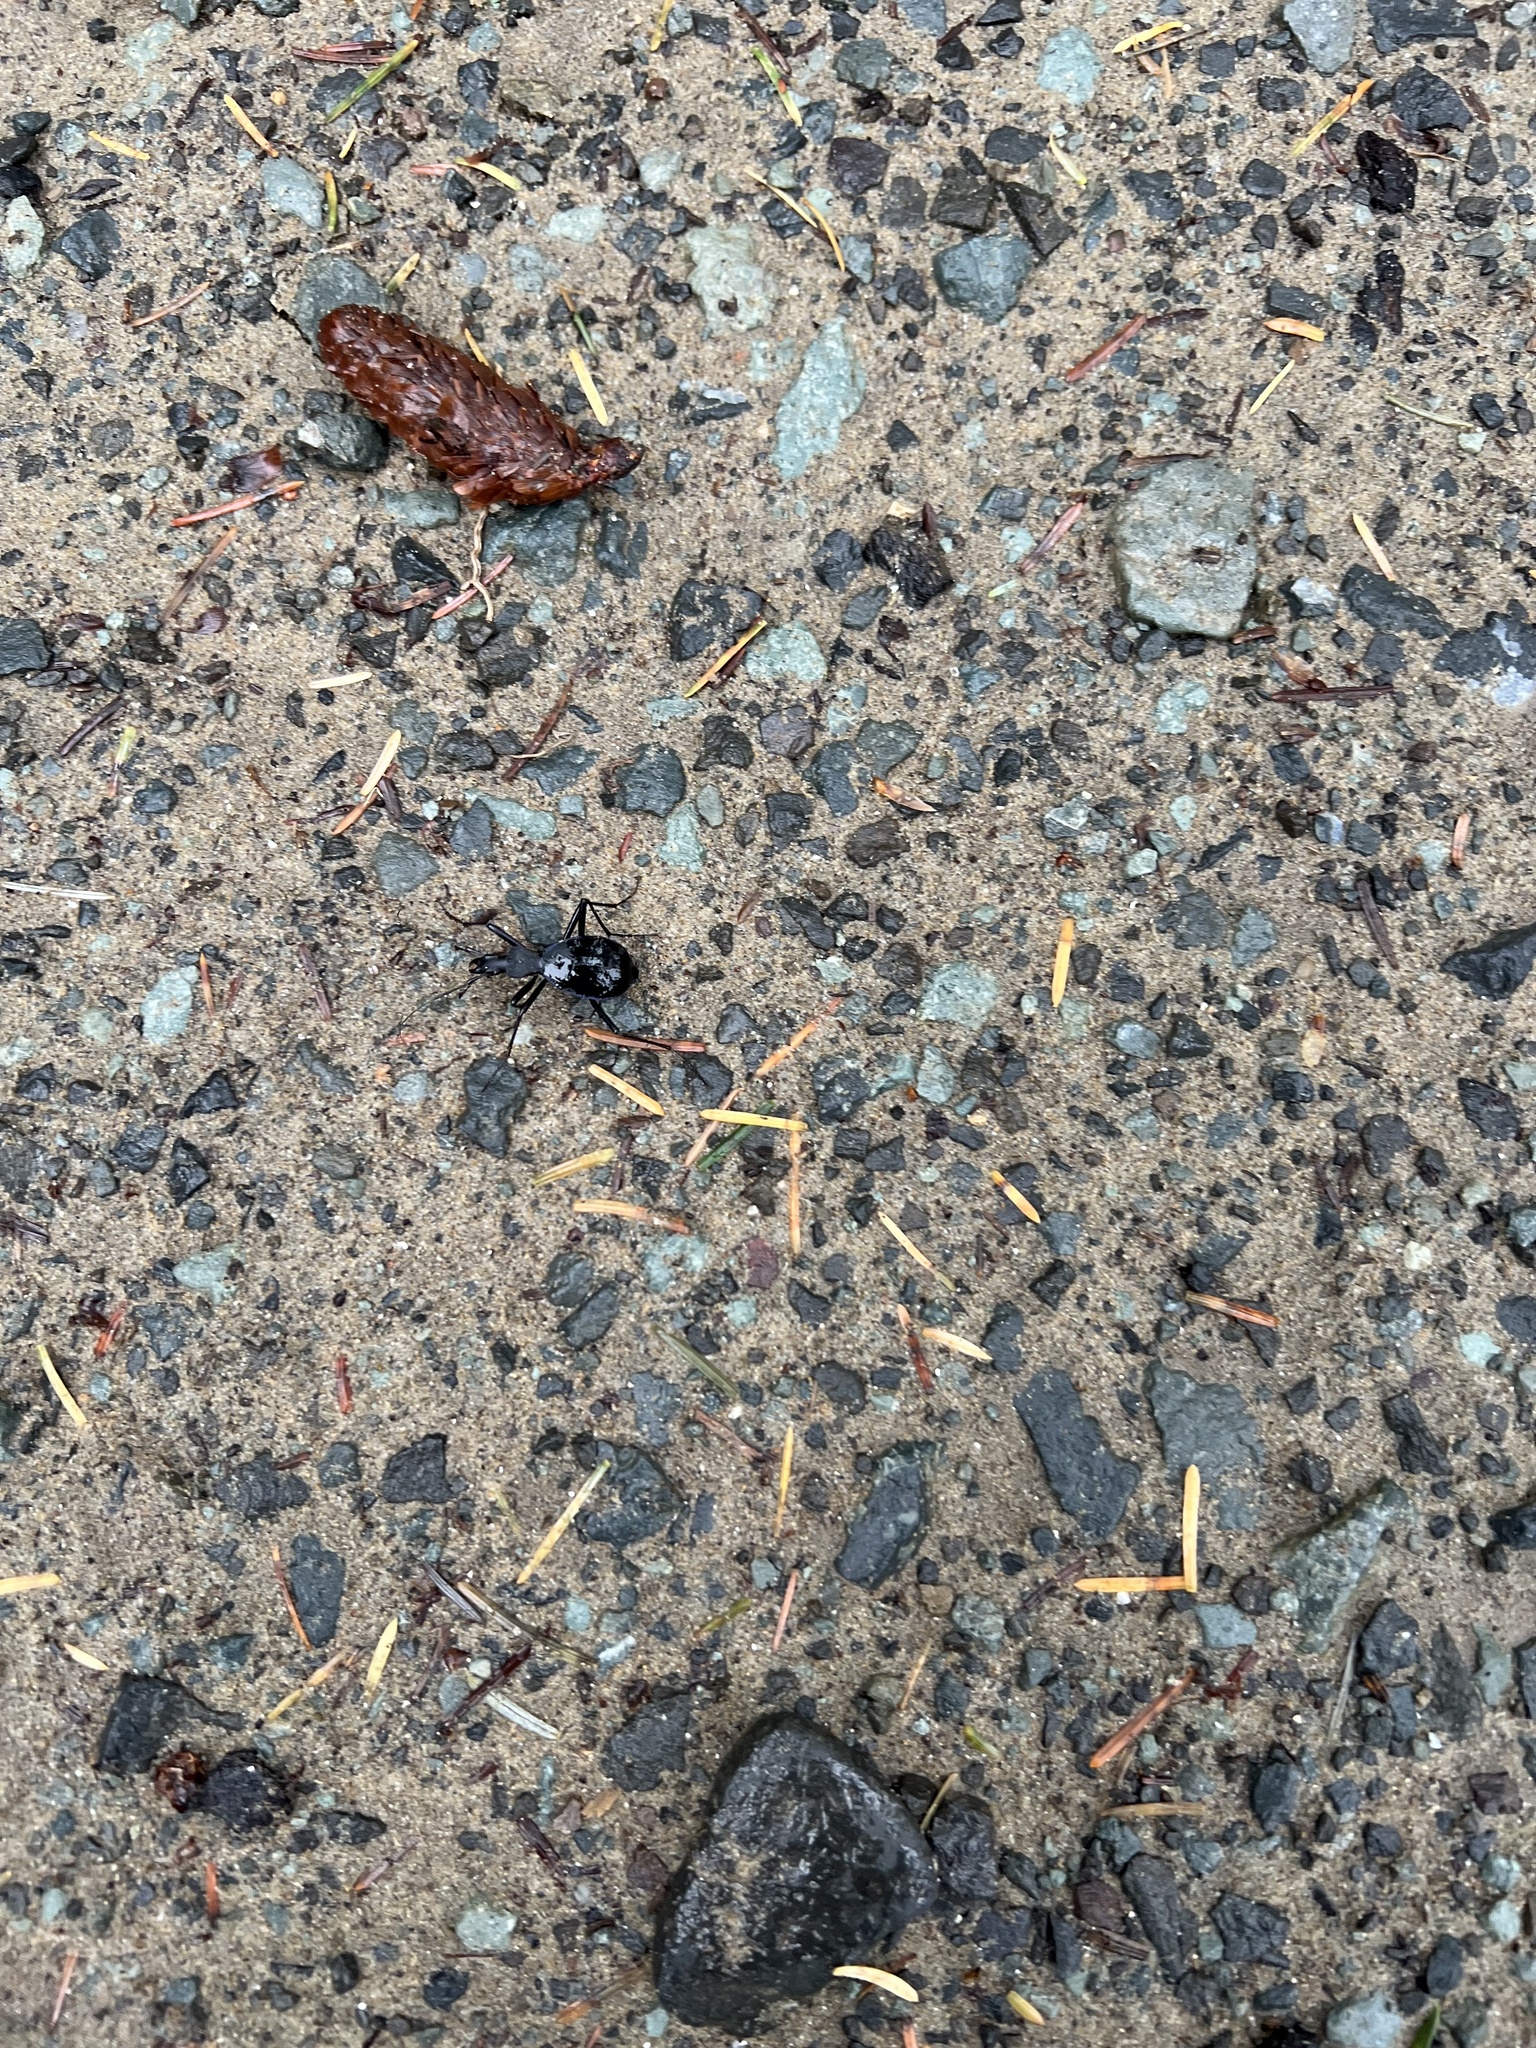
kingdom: Animalia
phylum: Arthropoda
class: Insecta
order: Coleoptera
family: Carabidae
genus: Scaphinotus
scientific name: Scaphinotus velutinus
